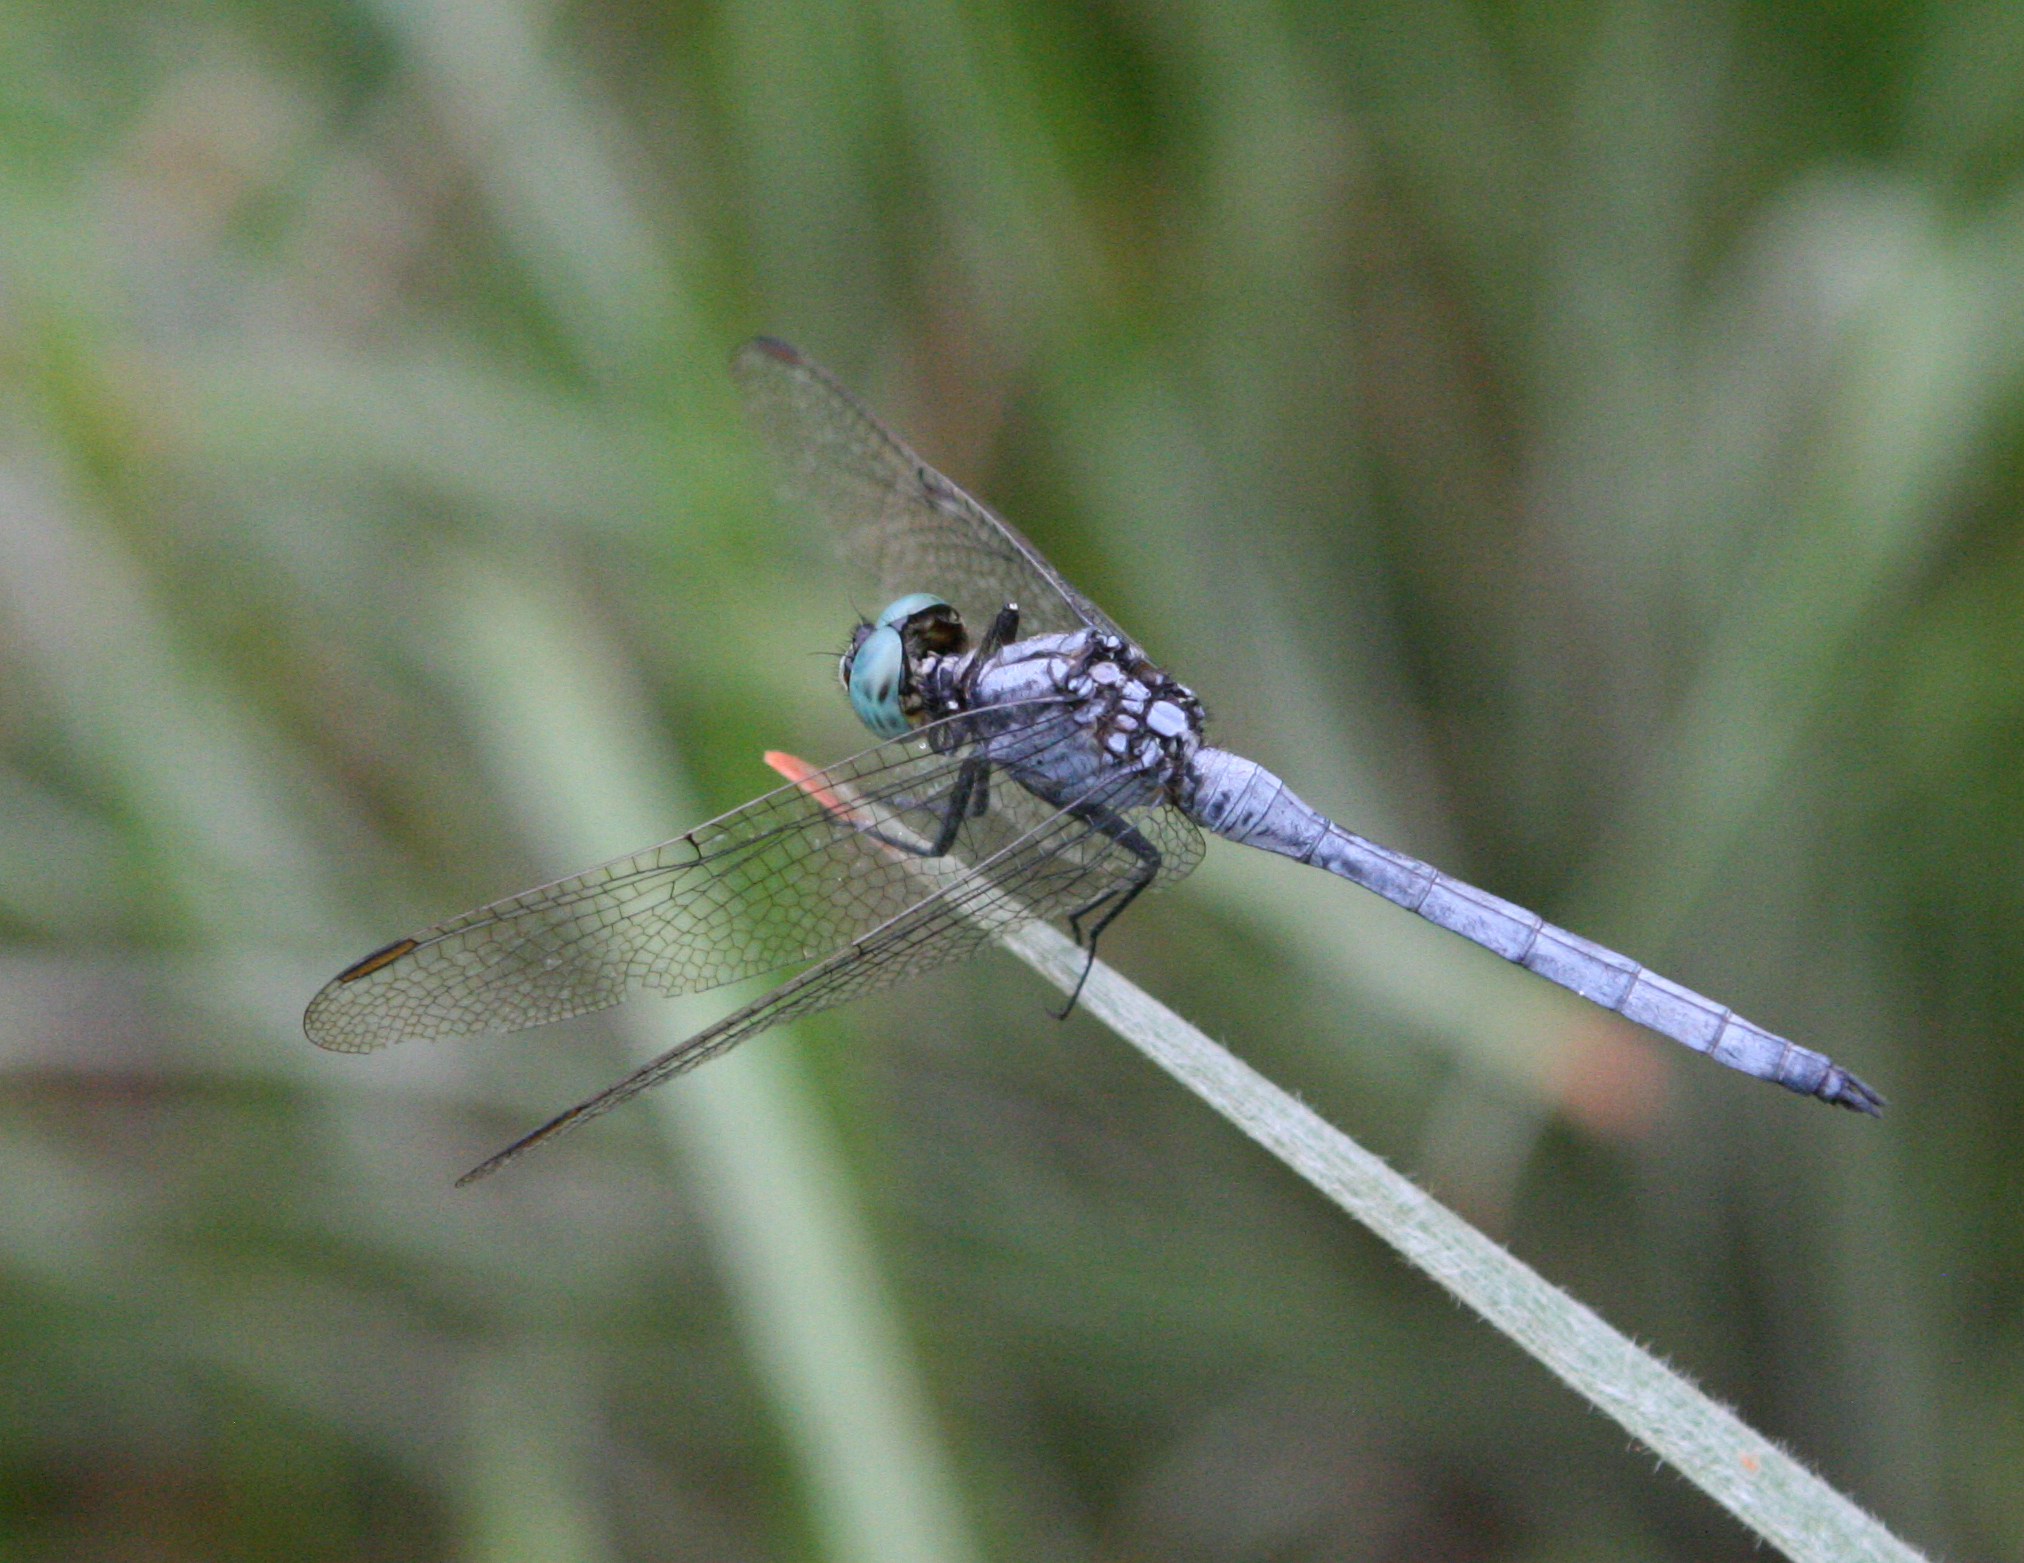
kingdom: Animalia
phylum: Arthropoda
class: Insecta
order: Odonata
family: Libellulidae
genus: Orthetrum
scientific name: Orthetrum luzonicum
